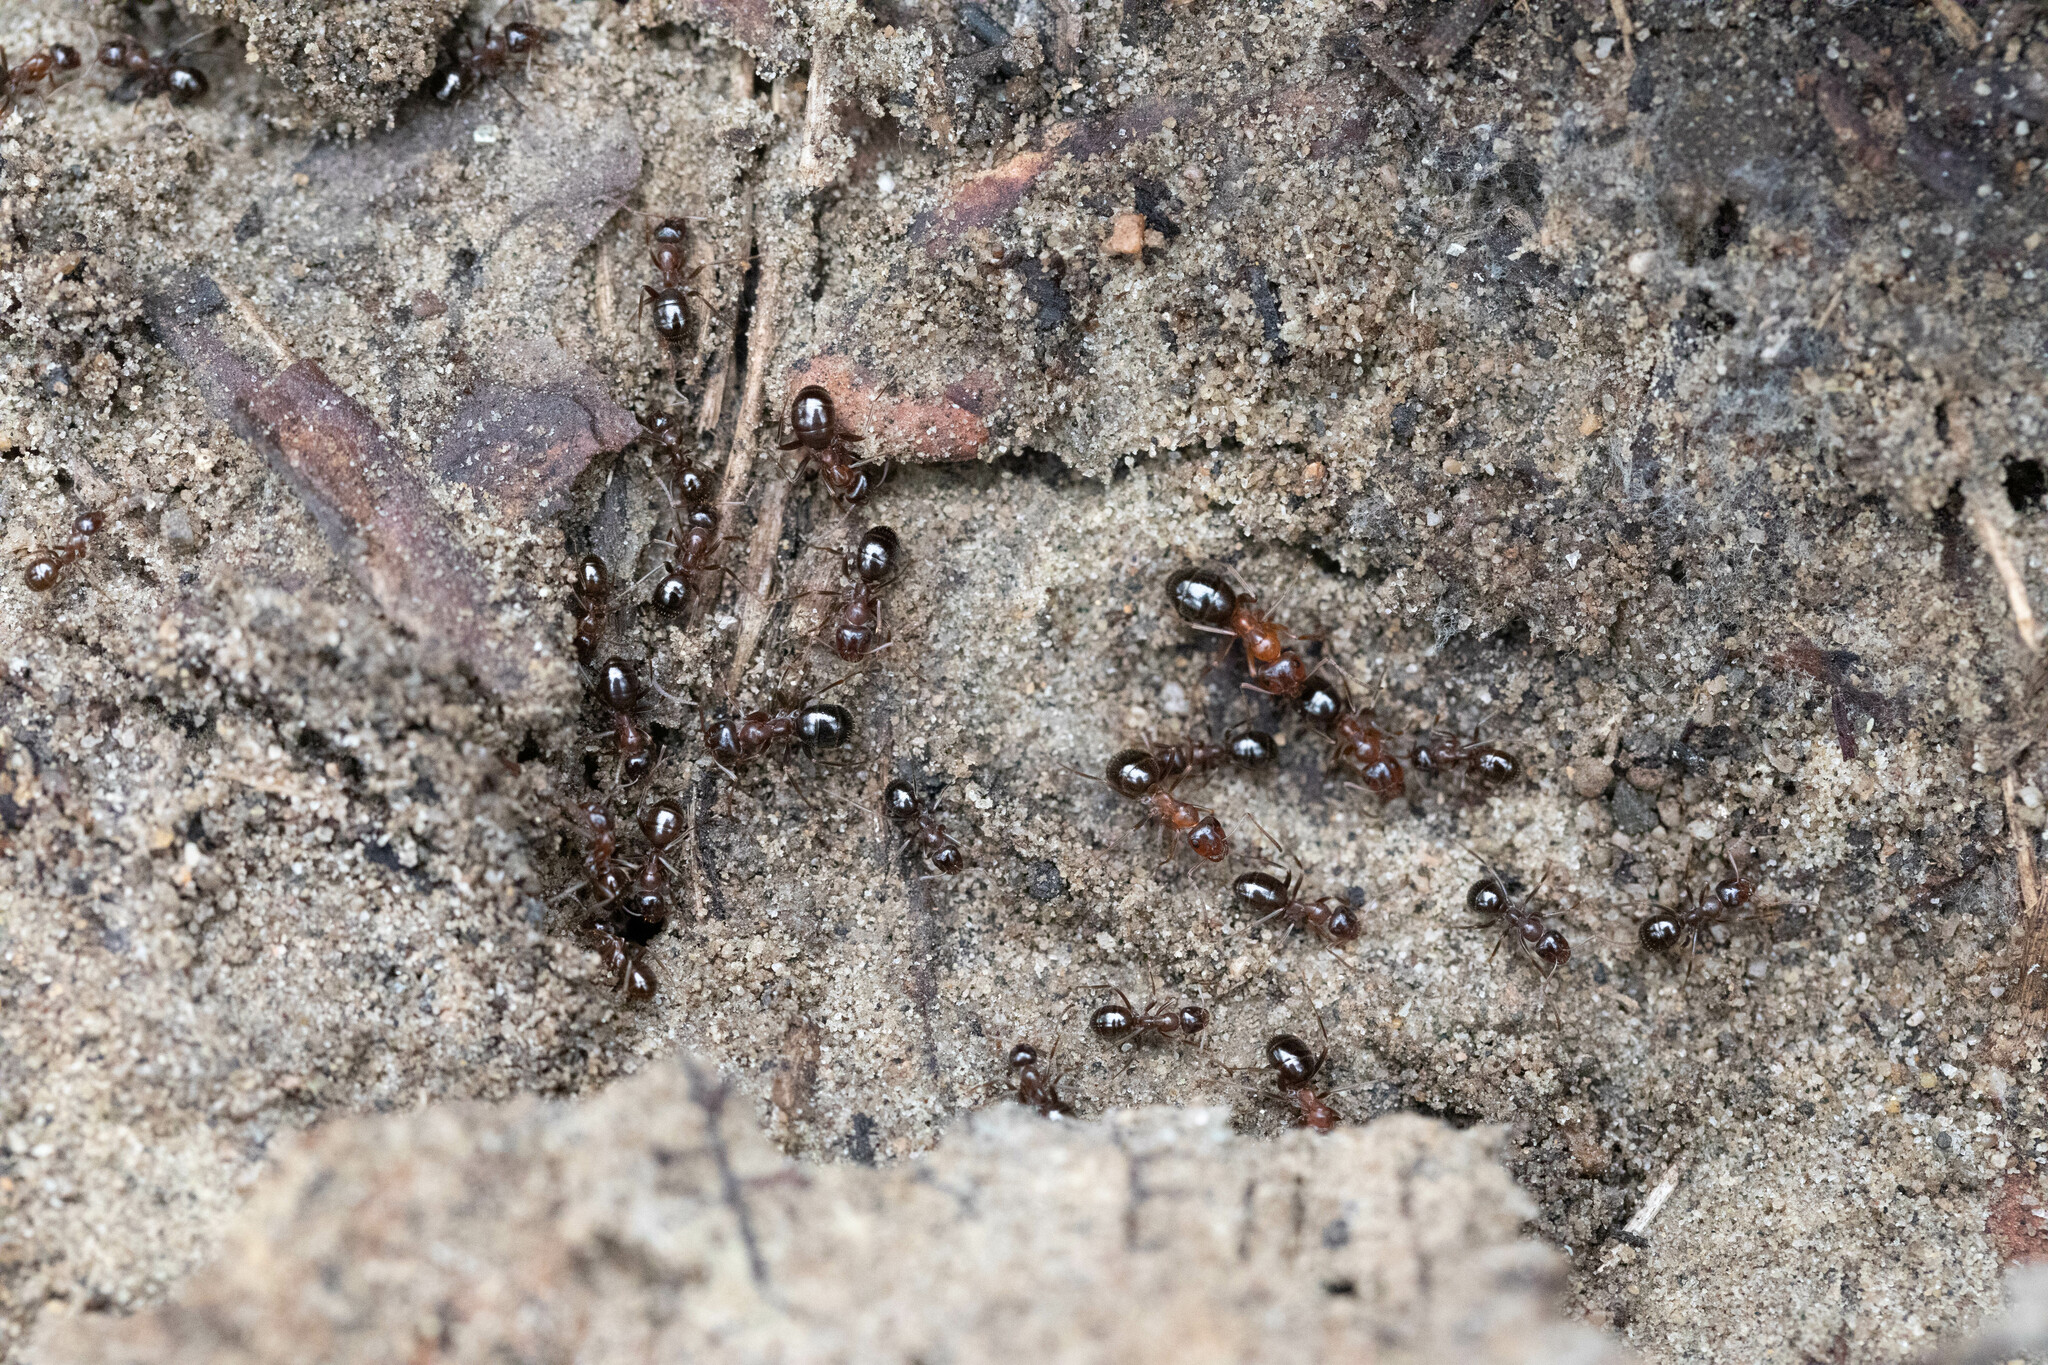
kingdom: Animalia
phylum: Arthropoda
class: Insecta
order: Hymenoptera
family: Formicidae
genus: Formica
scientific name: Formica subpolita
